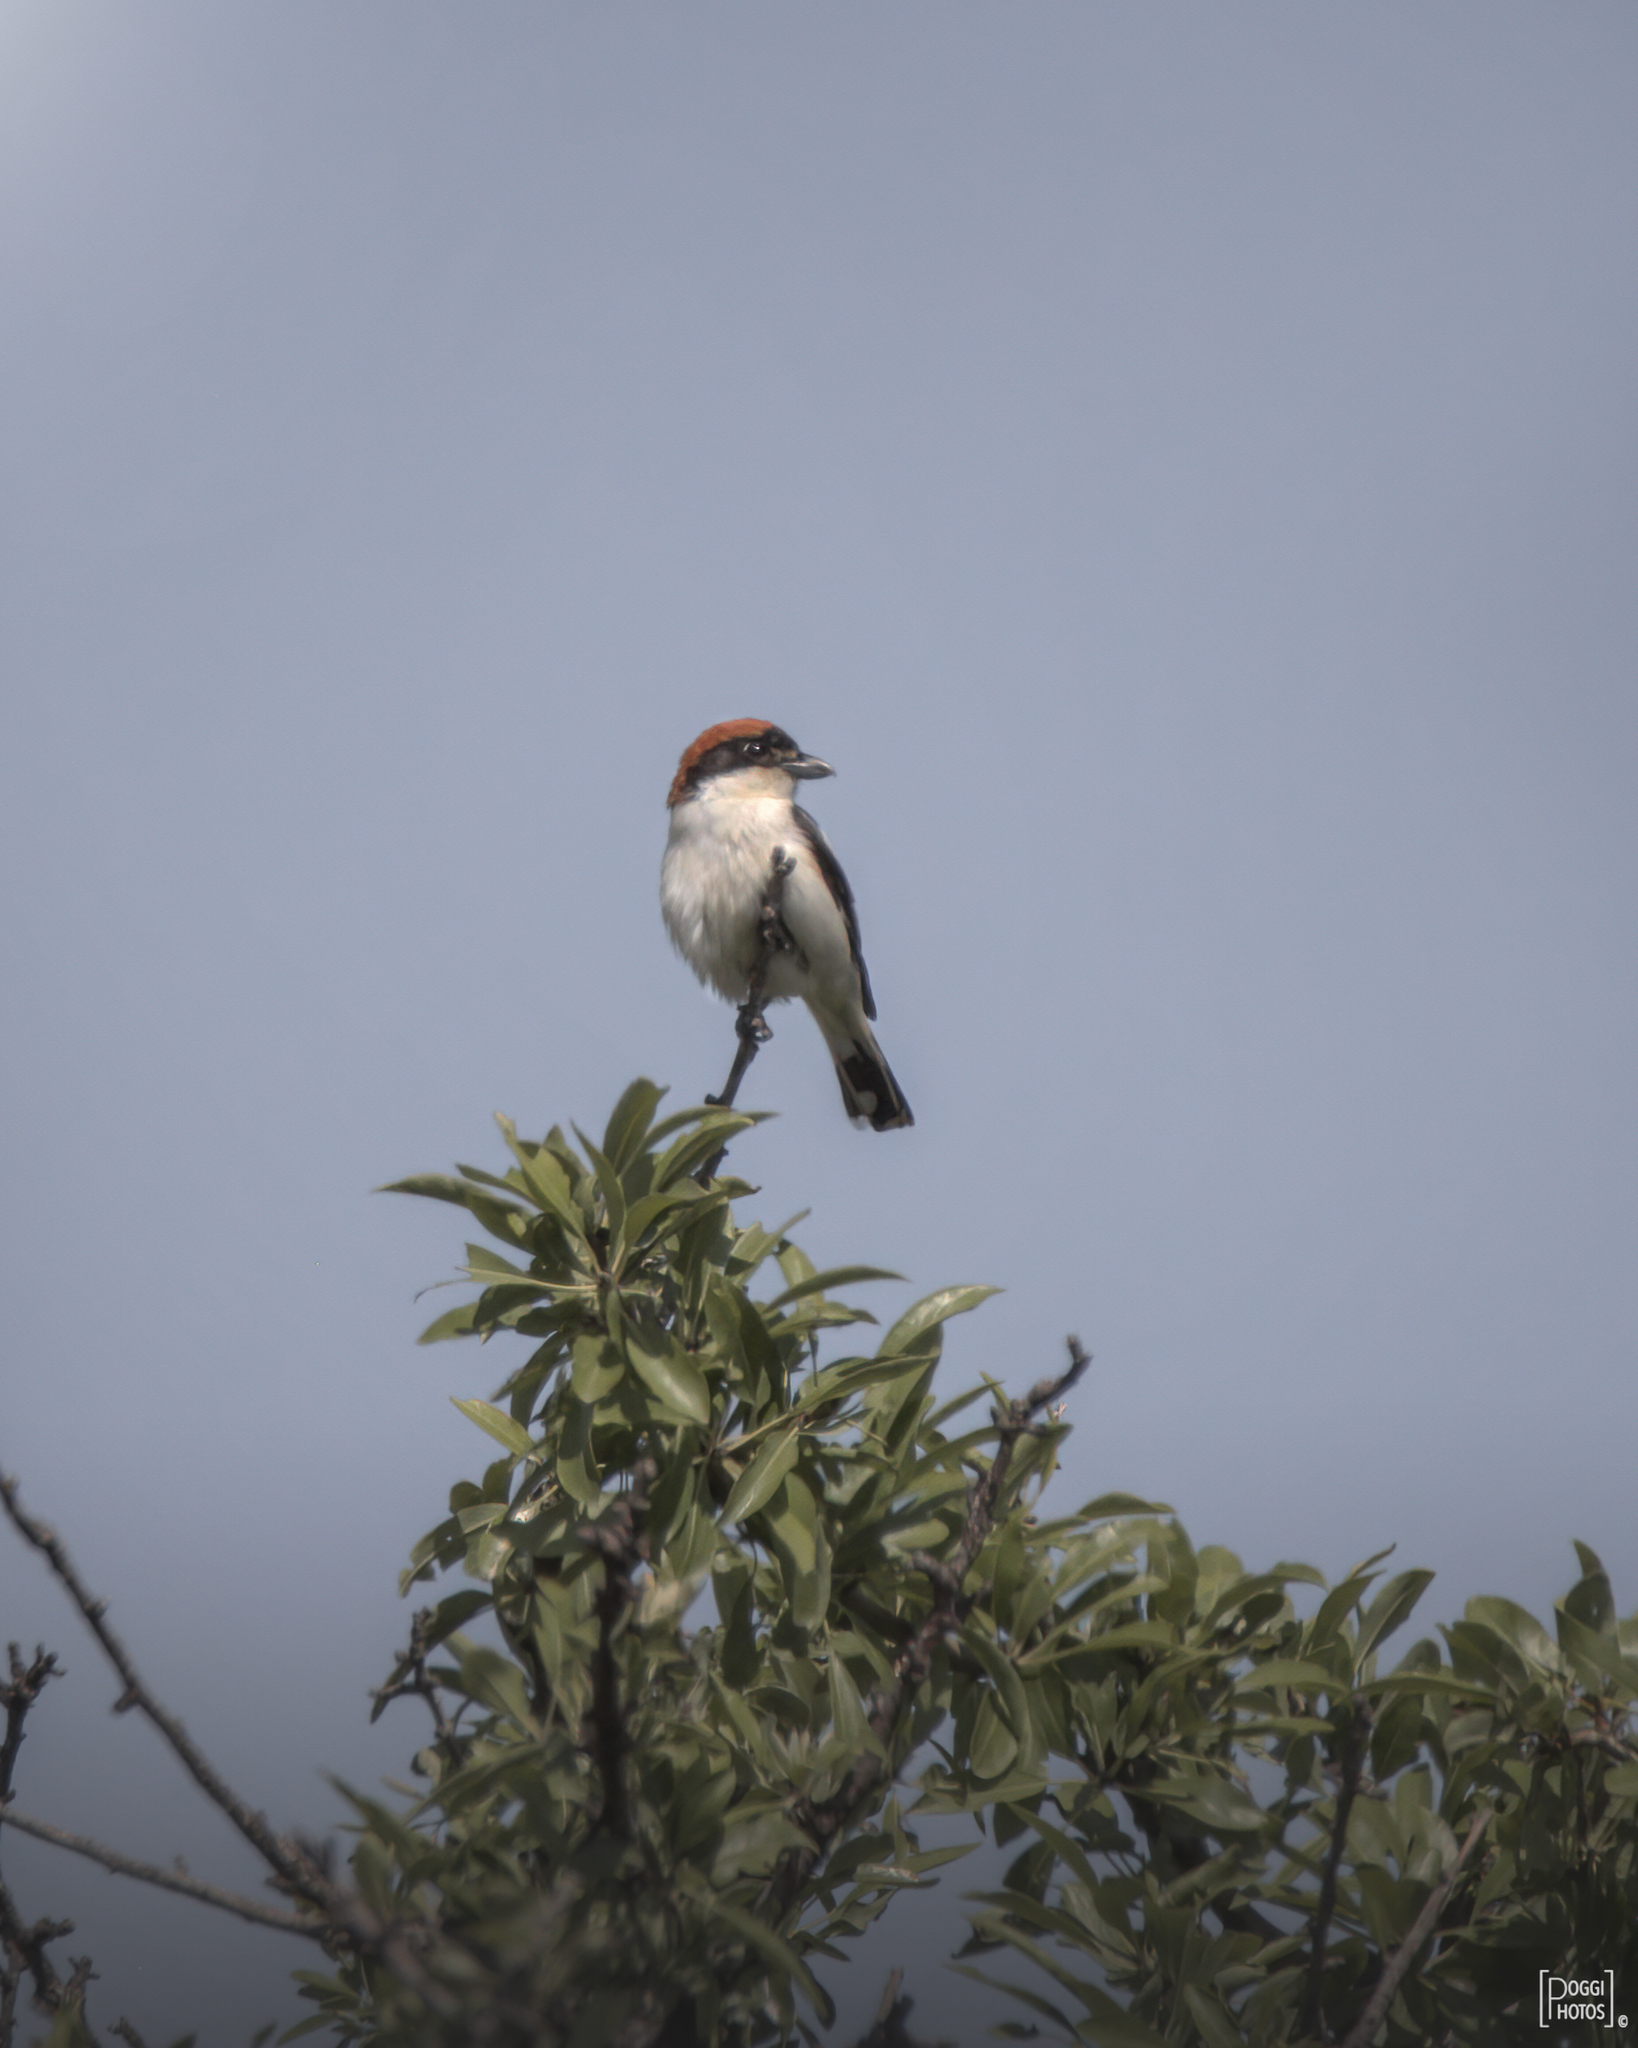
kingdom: Animalia
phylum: Chordata
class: Aves
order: Passeriformes
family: Laniidae
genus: Lanius
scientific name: Lanius senator
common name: Woodchat shrike
